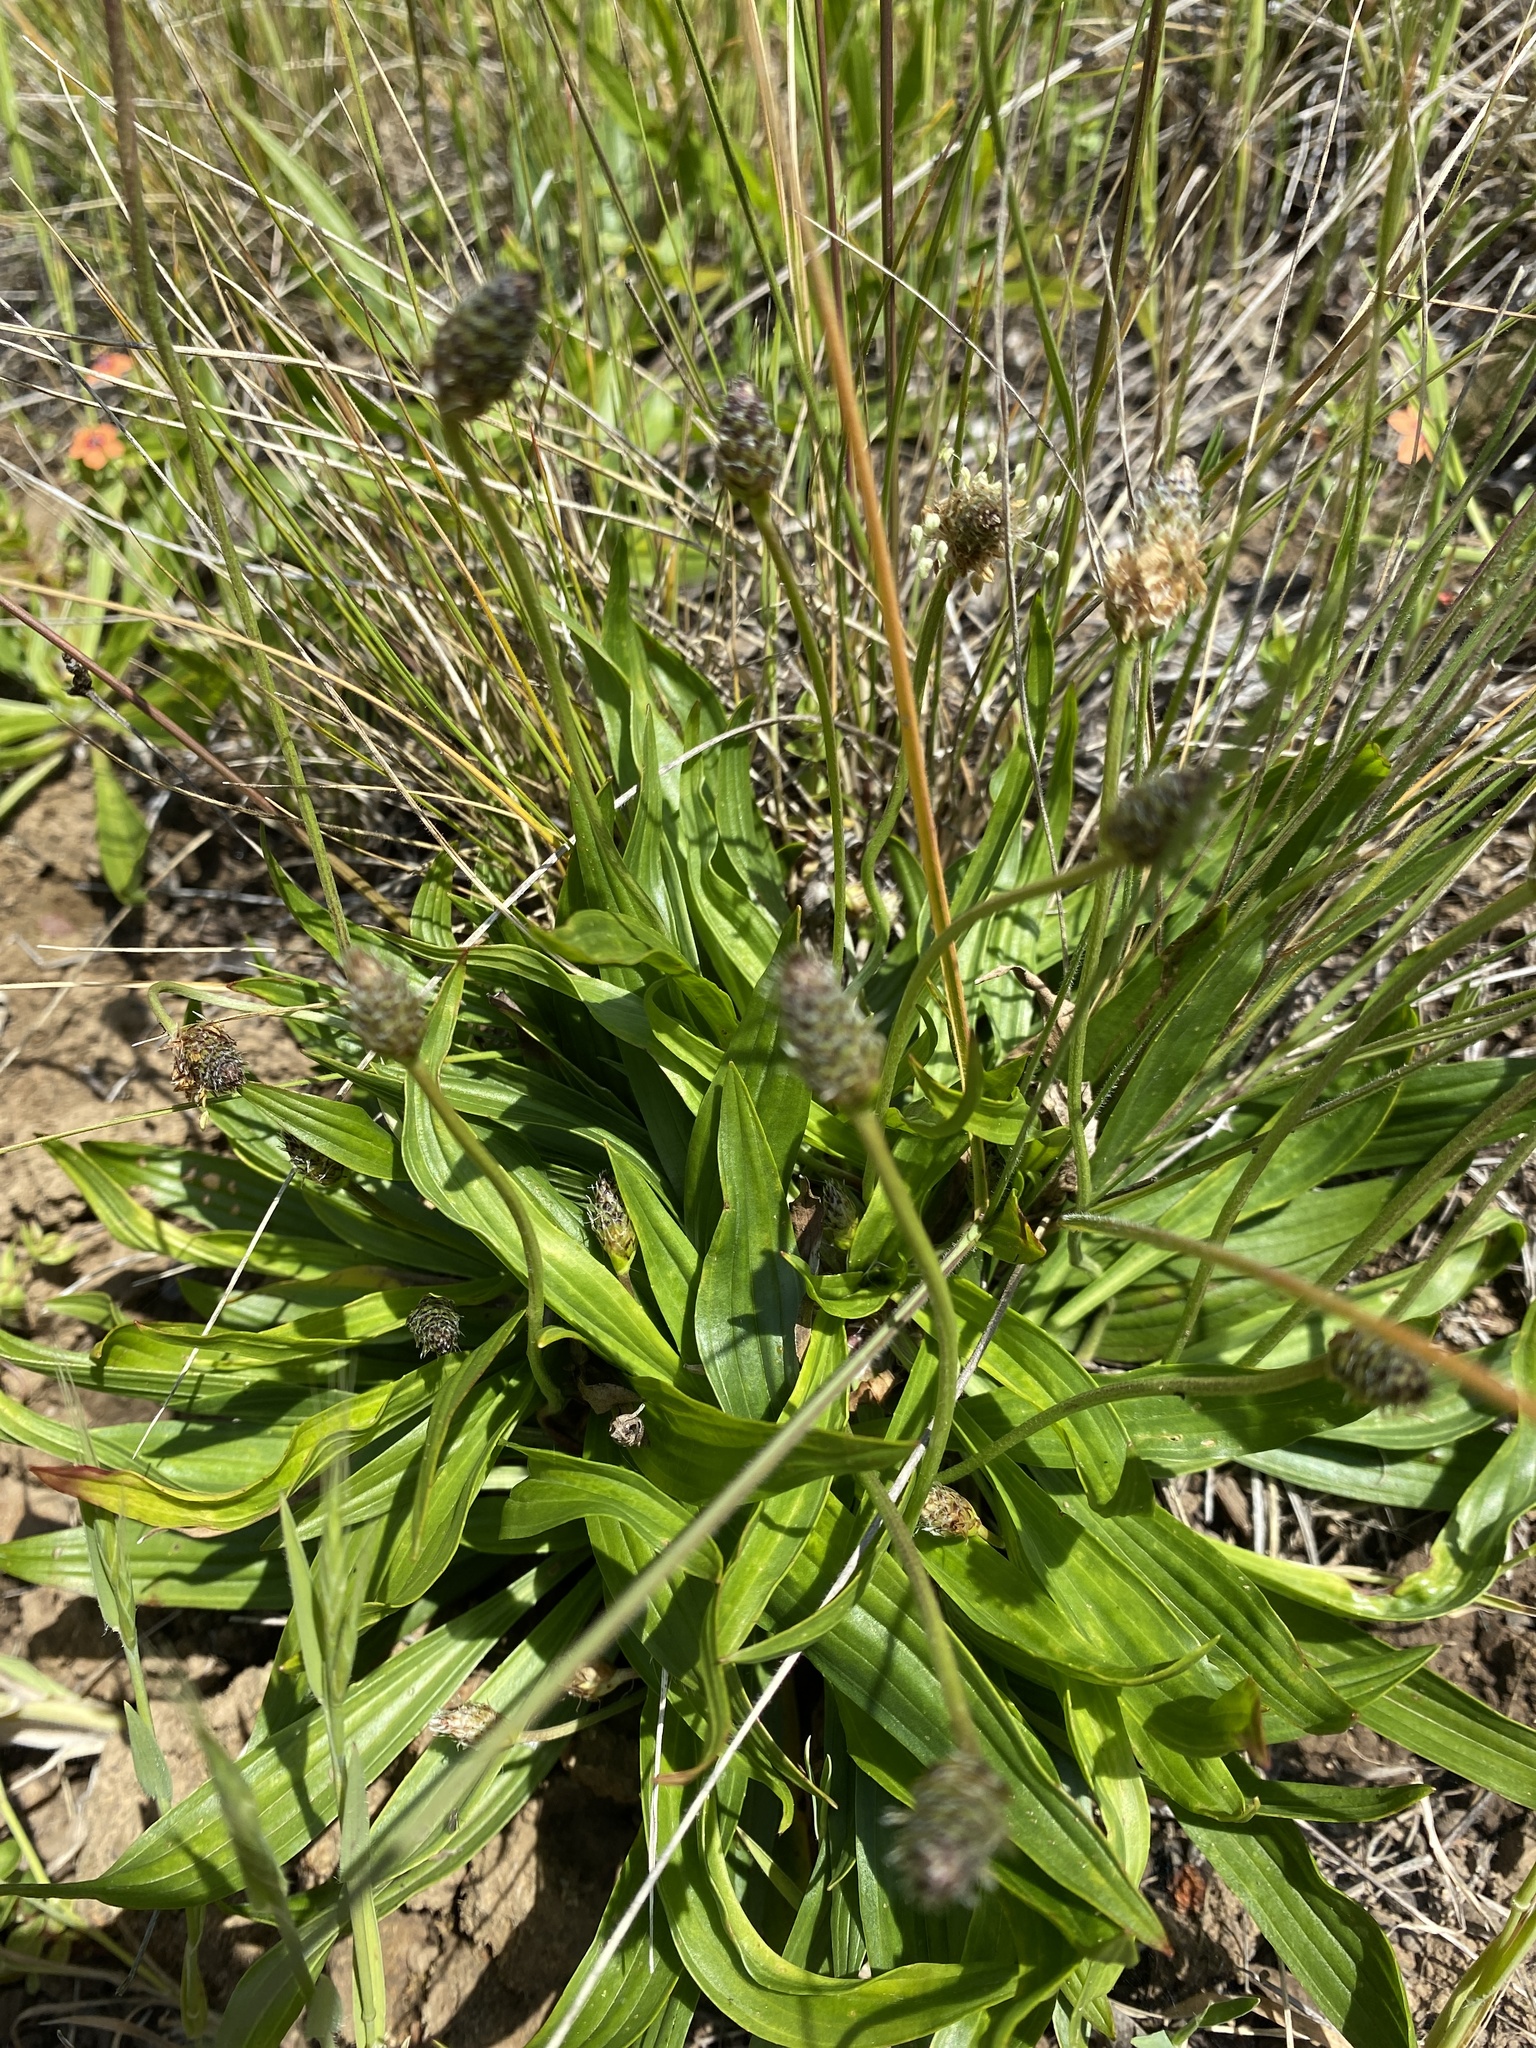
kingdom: Plantae
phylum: Tracheophyta
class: Magnoliopsida
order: Lamiales
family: Plantaginaceae
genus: Plantago
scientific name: Plantago lanceolata
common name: Ribwort plantain
